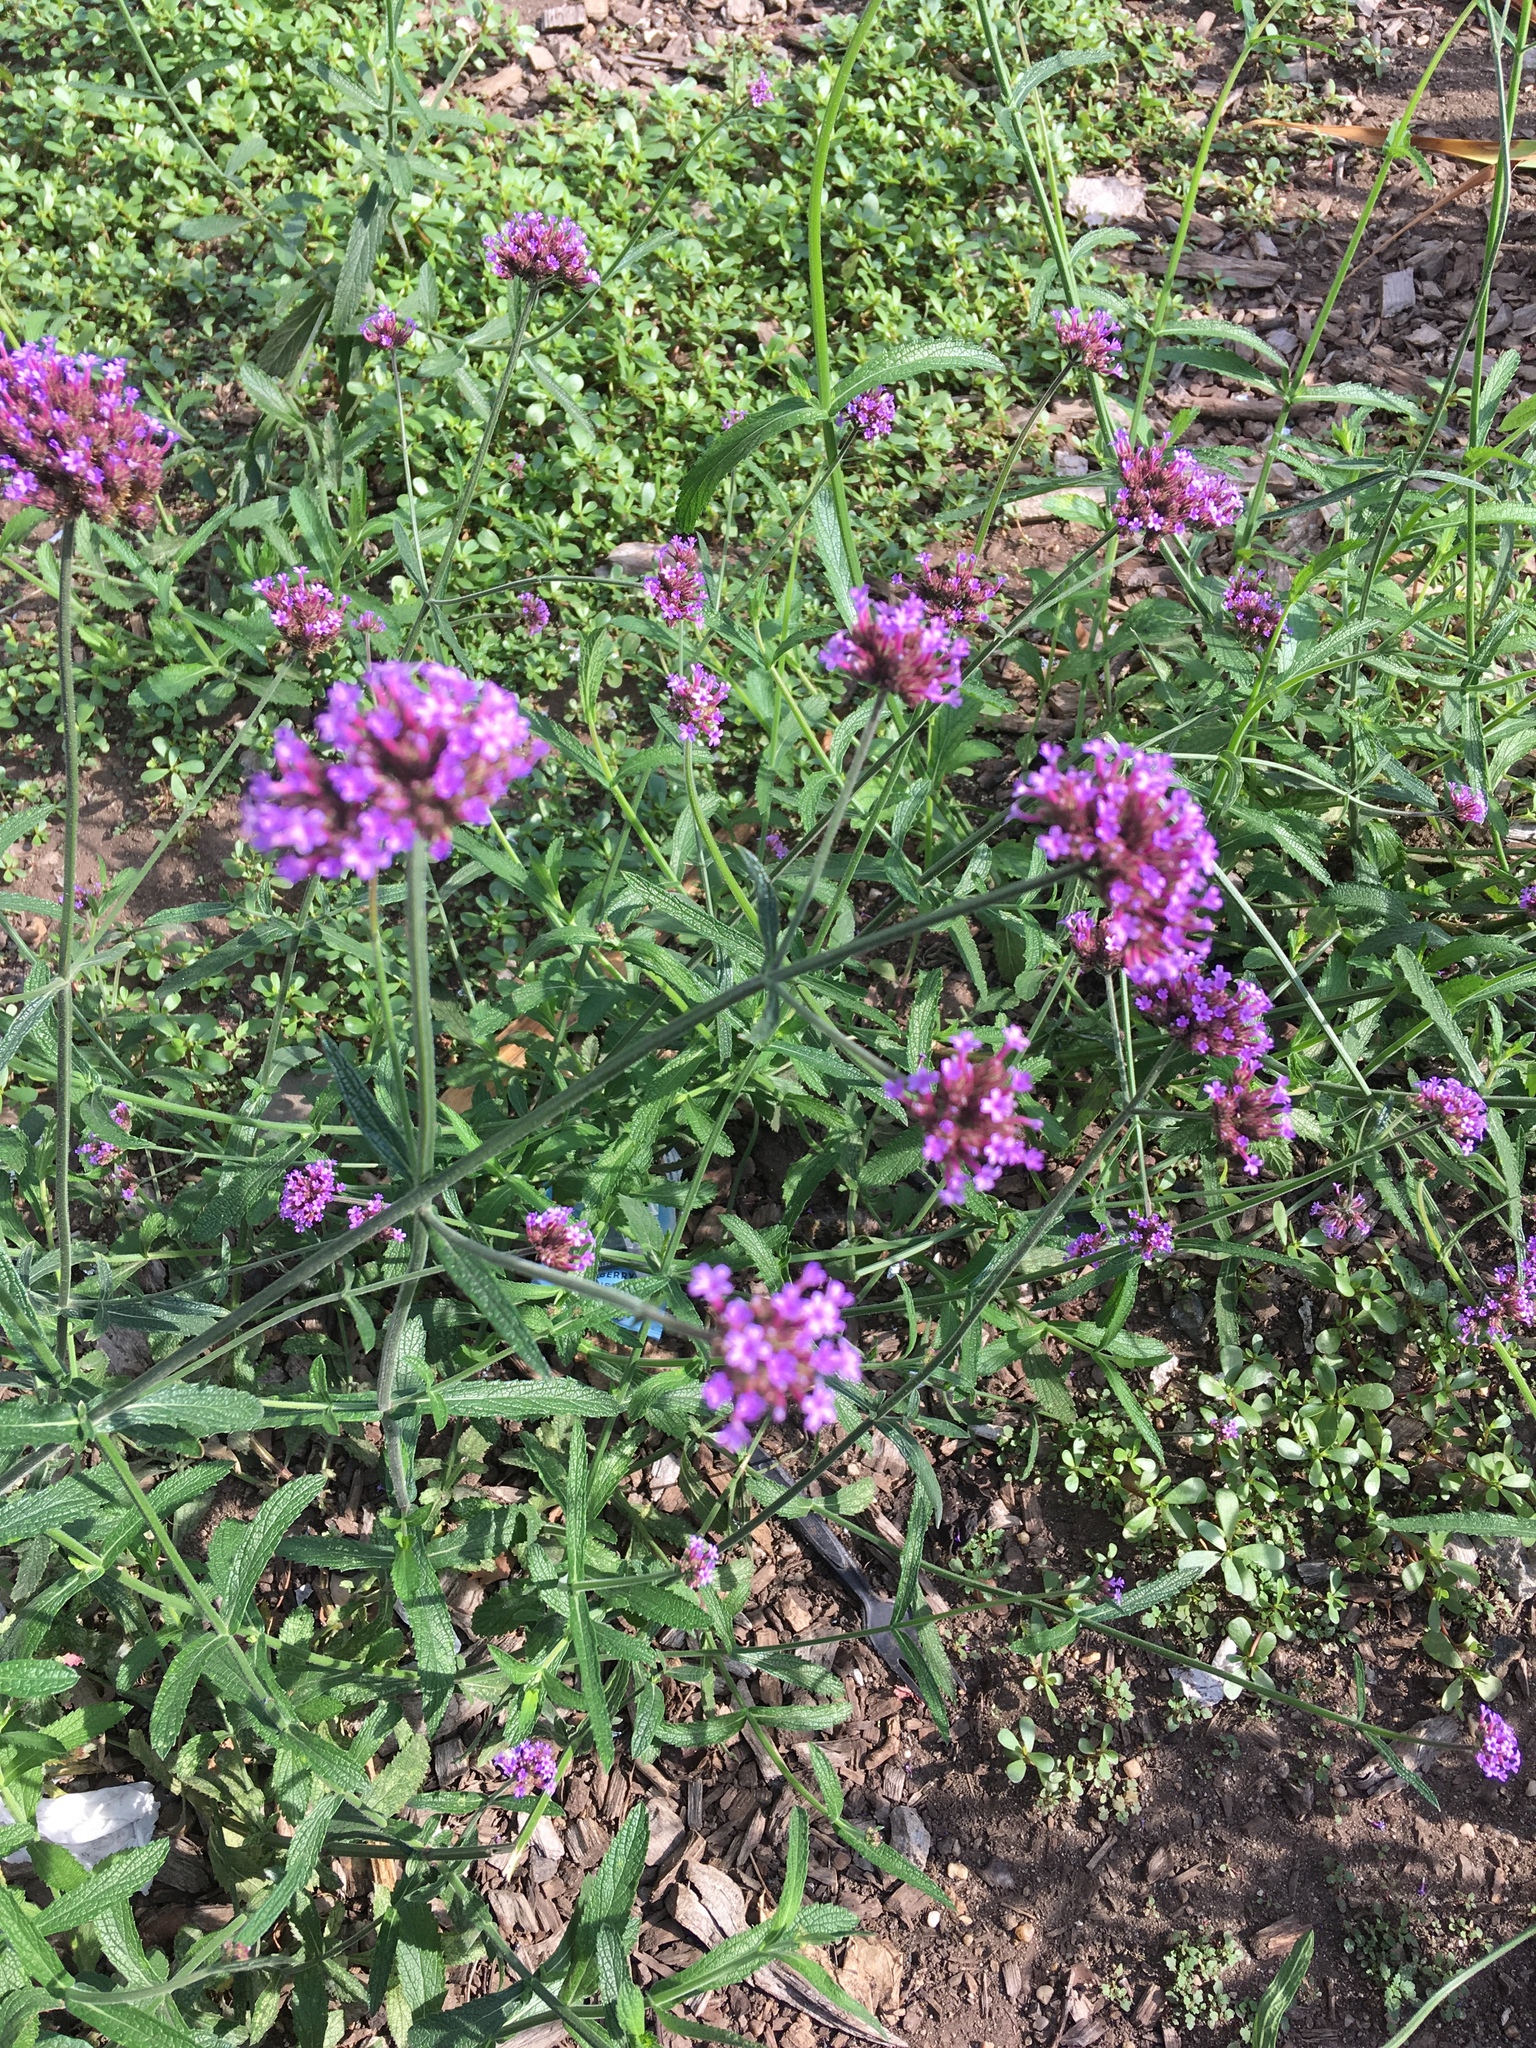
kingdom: Plantae
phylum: Tracheophyta
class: Magnoliopsida
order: Lamiales
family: Verbenaceae
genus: Verbena
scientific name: Verbena bonariensis
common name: Purpletop vervain
